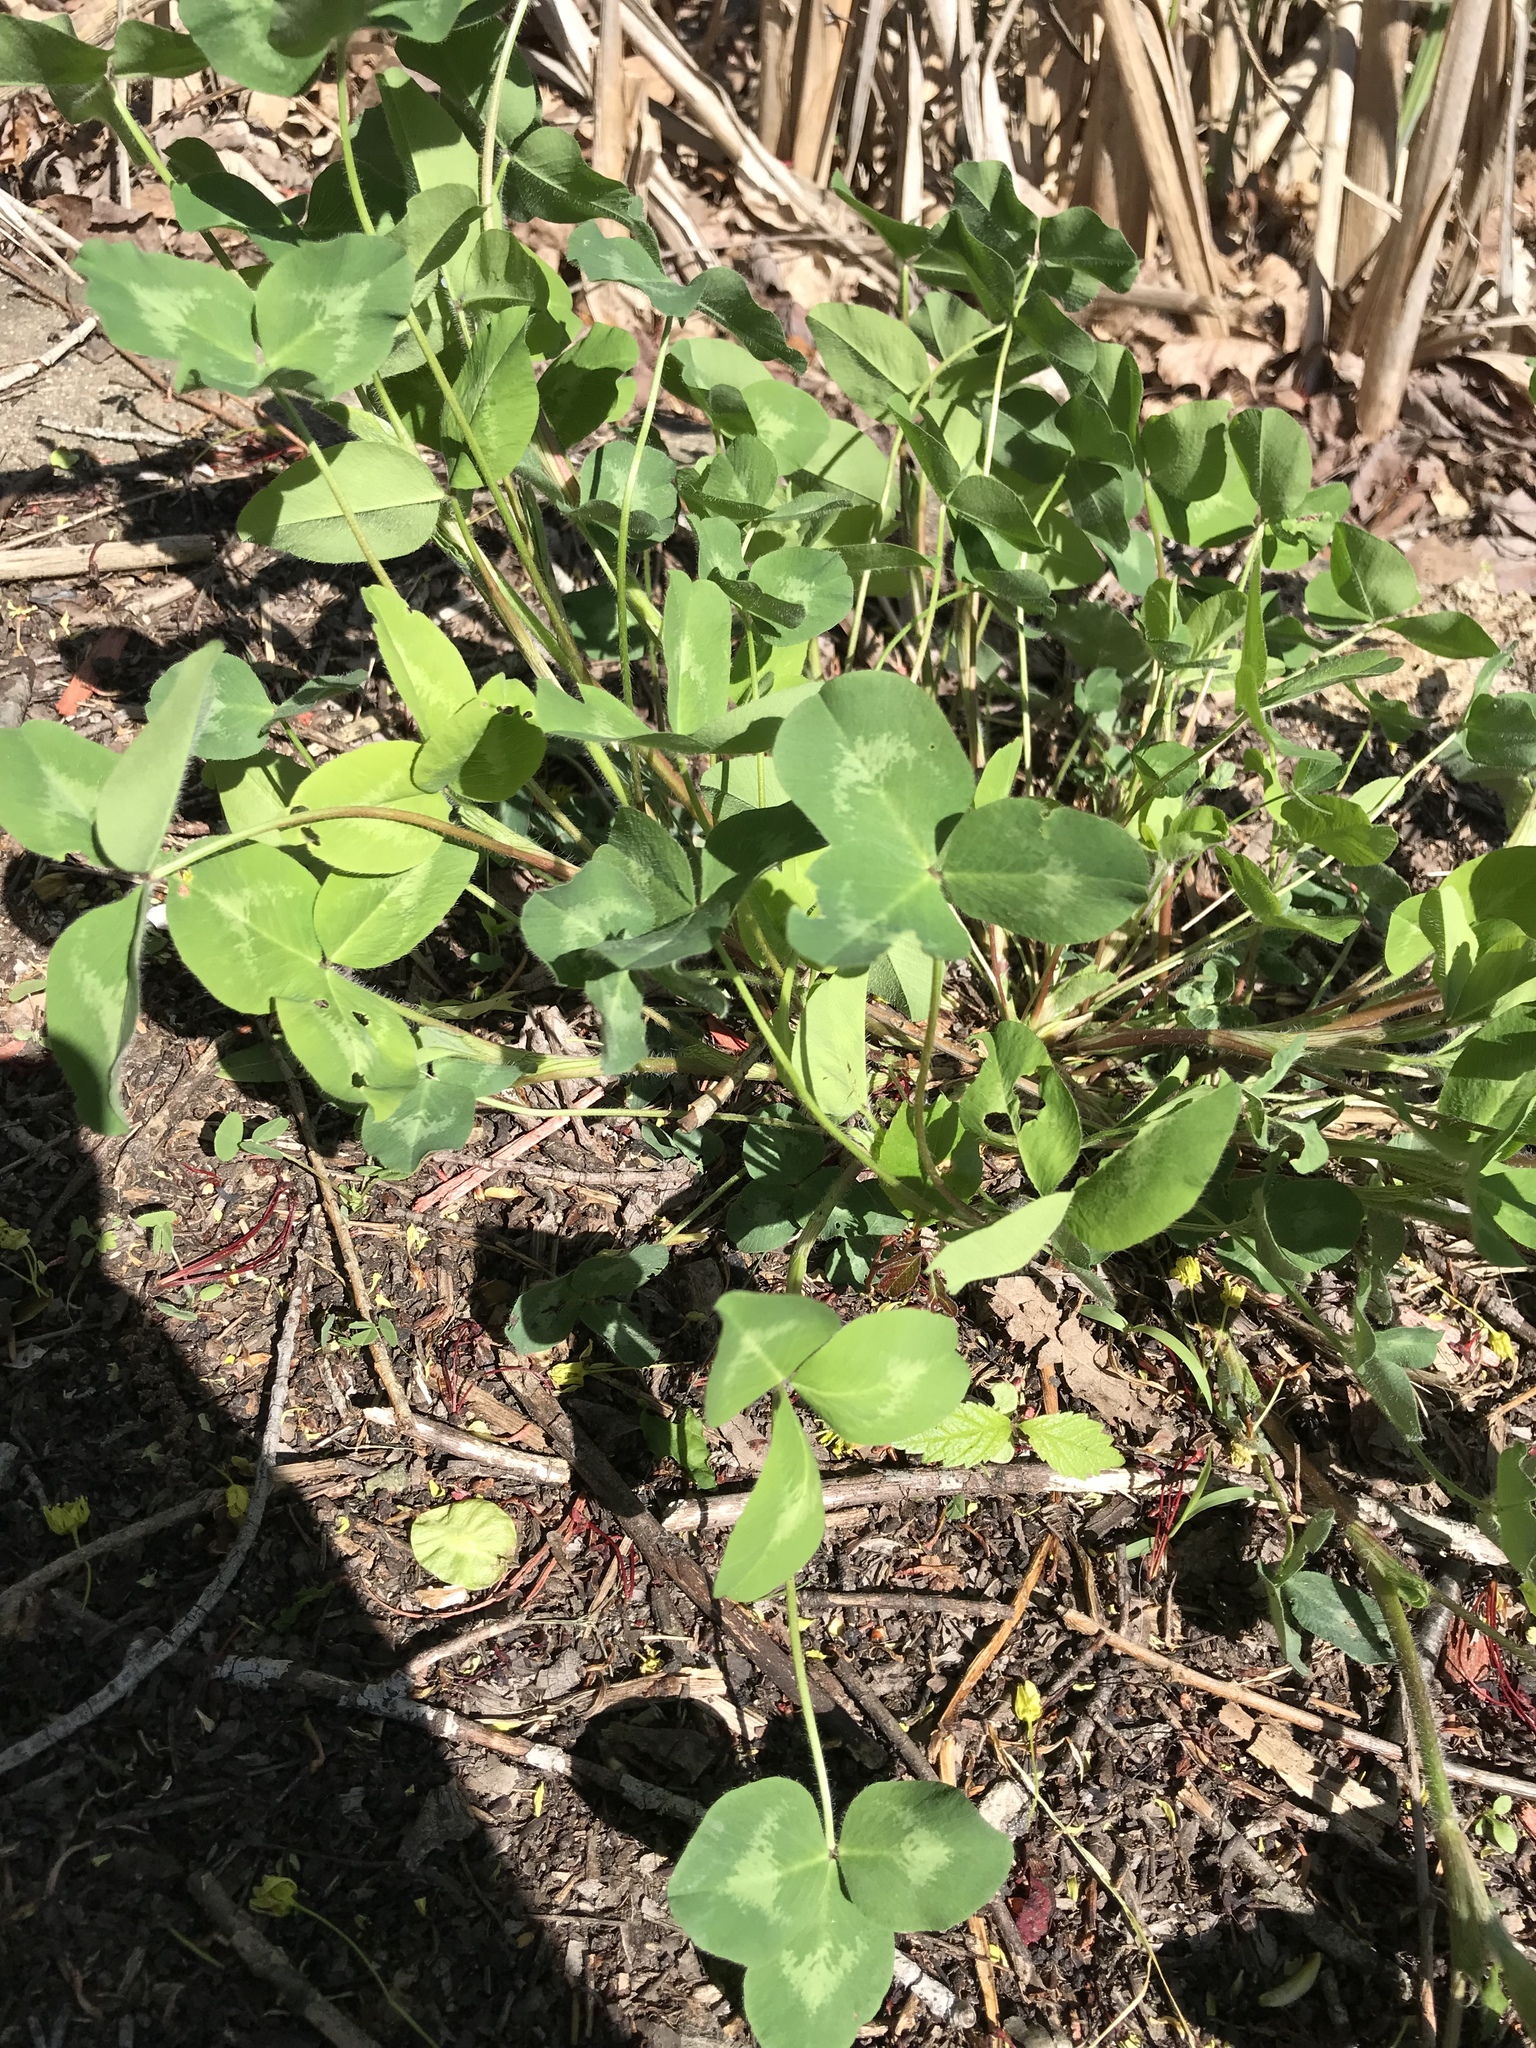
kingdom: Plantae
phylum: Tracheophyta
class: Magnoliopsida
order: Fabales
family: Fabaceae
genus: Trifolium
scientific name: Trifolium pratense
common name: Red clover
